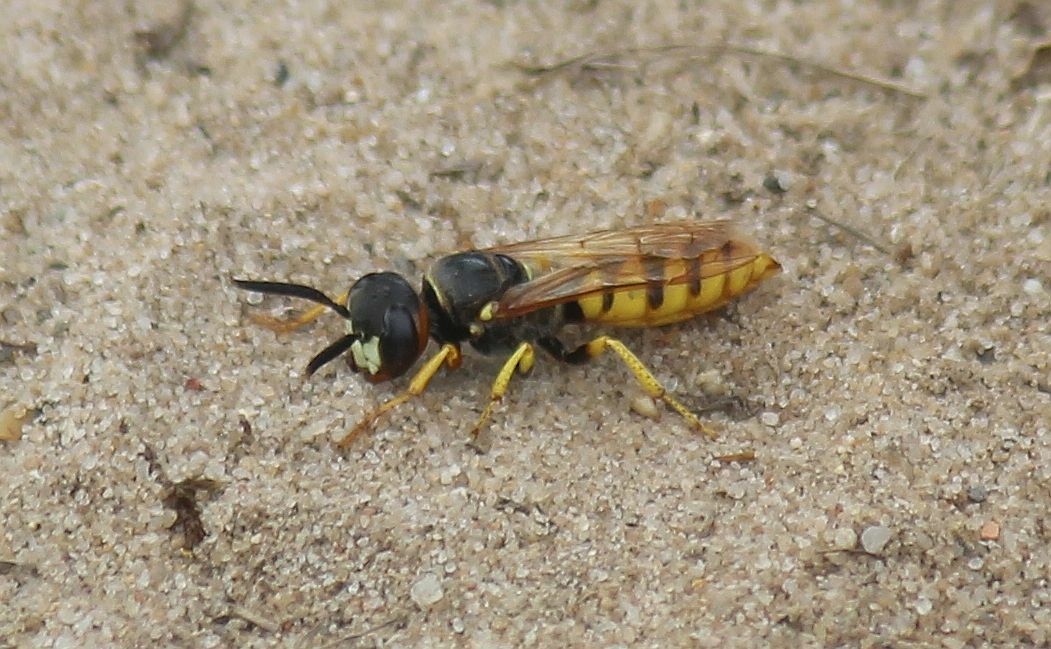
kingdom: Animalia
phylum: Arthropoda
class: Insecta
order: Hymenoptera
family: Crabronidae
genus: Philanthus
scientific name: Philanthus triangulum
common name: Bee wolf
